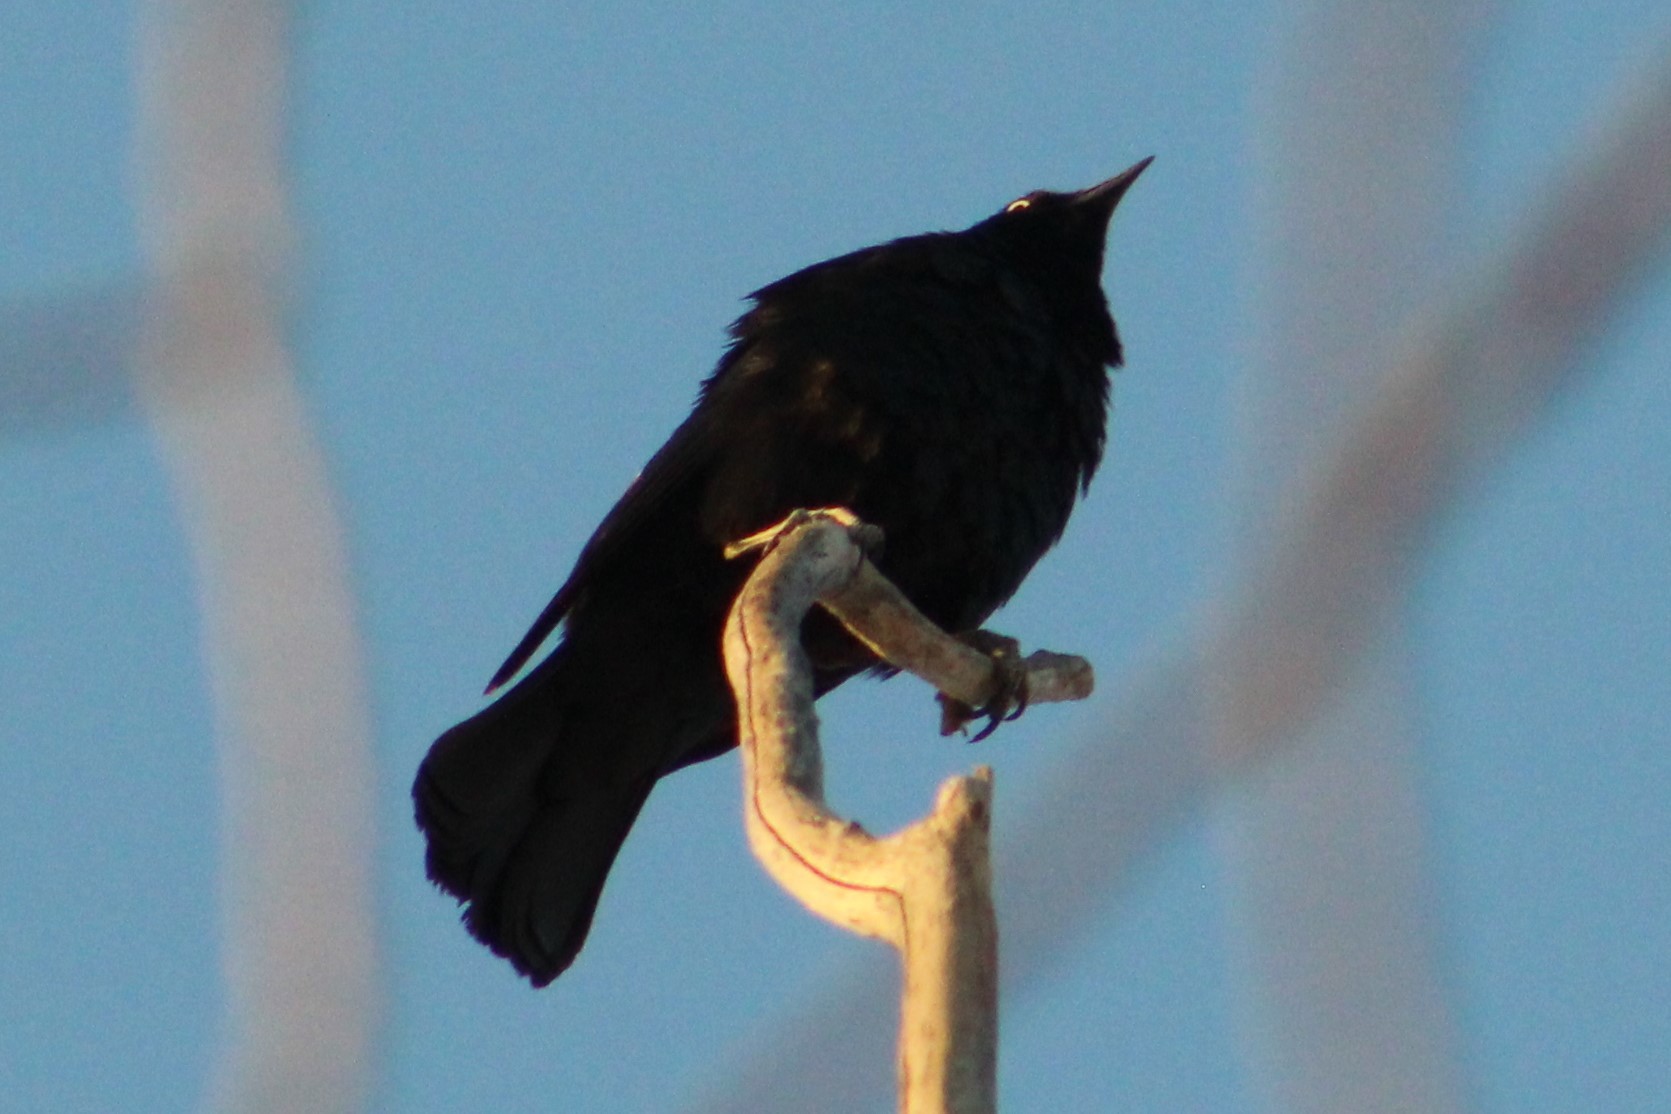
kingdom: Animalia
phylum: Chordata
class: Aves
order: Passeriformes
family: Icteridae
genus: Euphagus
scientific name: Euphagus cyanocephalus
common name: Brewer's blackbird
